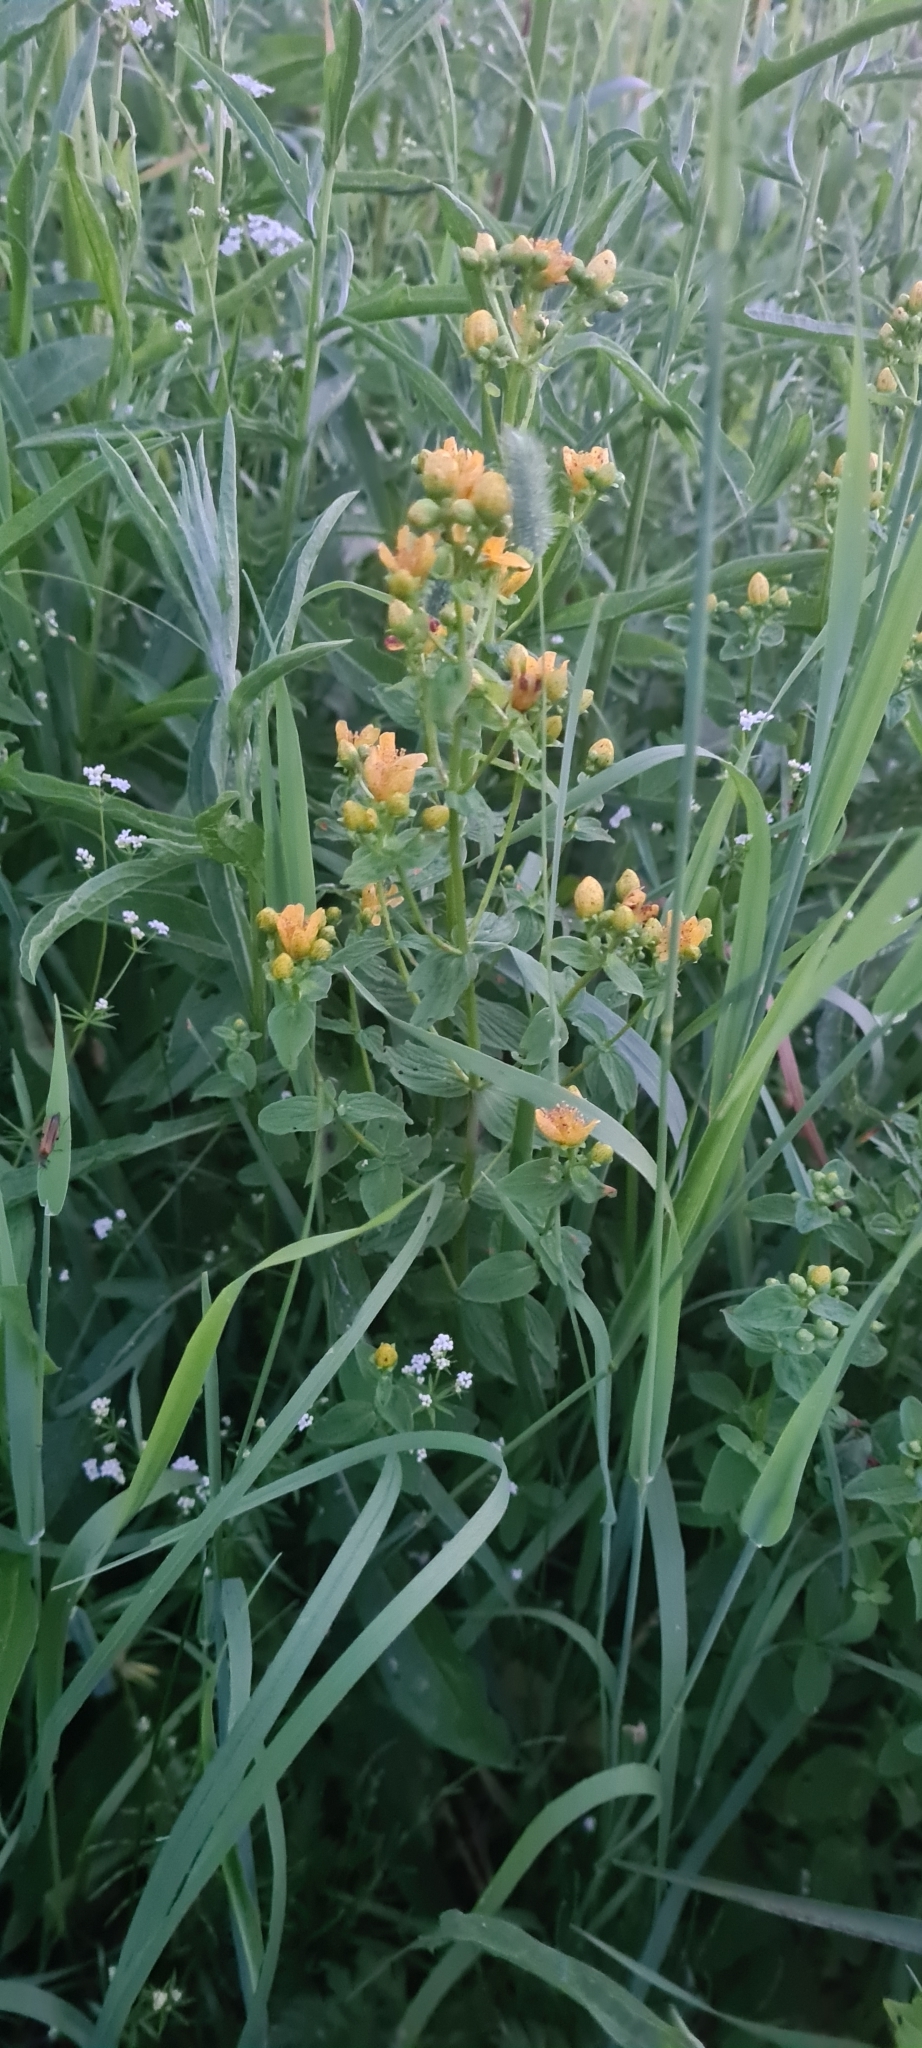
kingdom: Plantae
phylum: Tracheophyta
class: Magnoliopsida
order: Malpighiales
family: Hypericaceae
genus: Hypericum
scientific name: Hypericum maculatum
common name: Imperforate st. john's-wort
